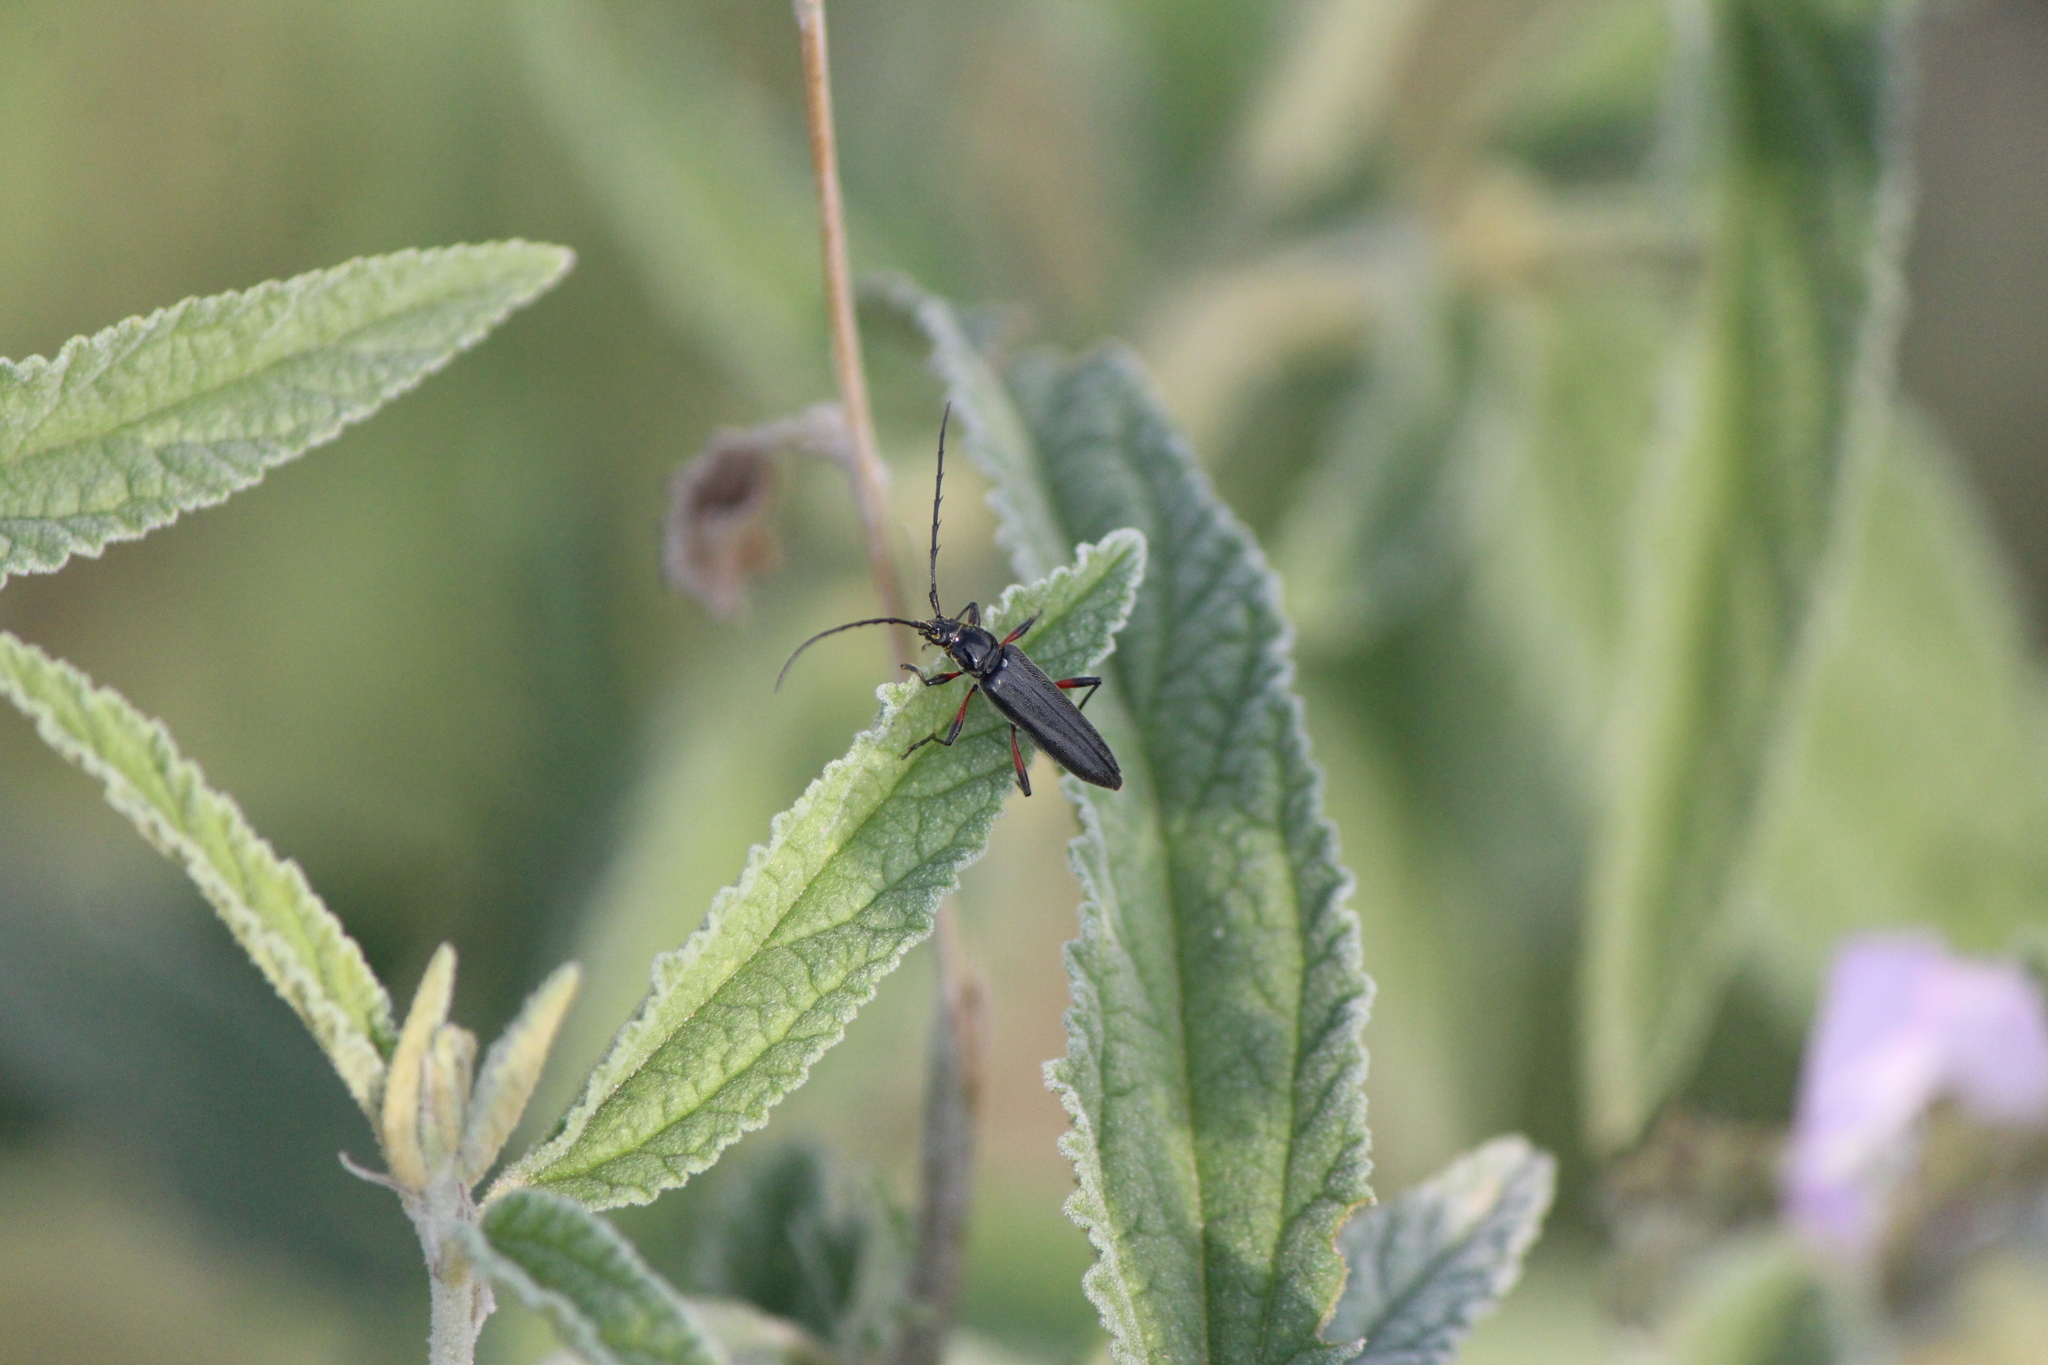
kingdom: Animalia
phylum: Arthropoda
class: Insecta
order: Coleoptera
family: Cerambycidae
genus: Stenosphenus
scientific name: Stenosphenus sobrius
